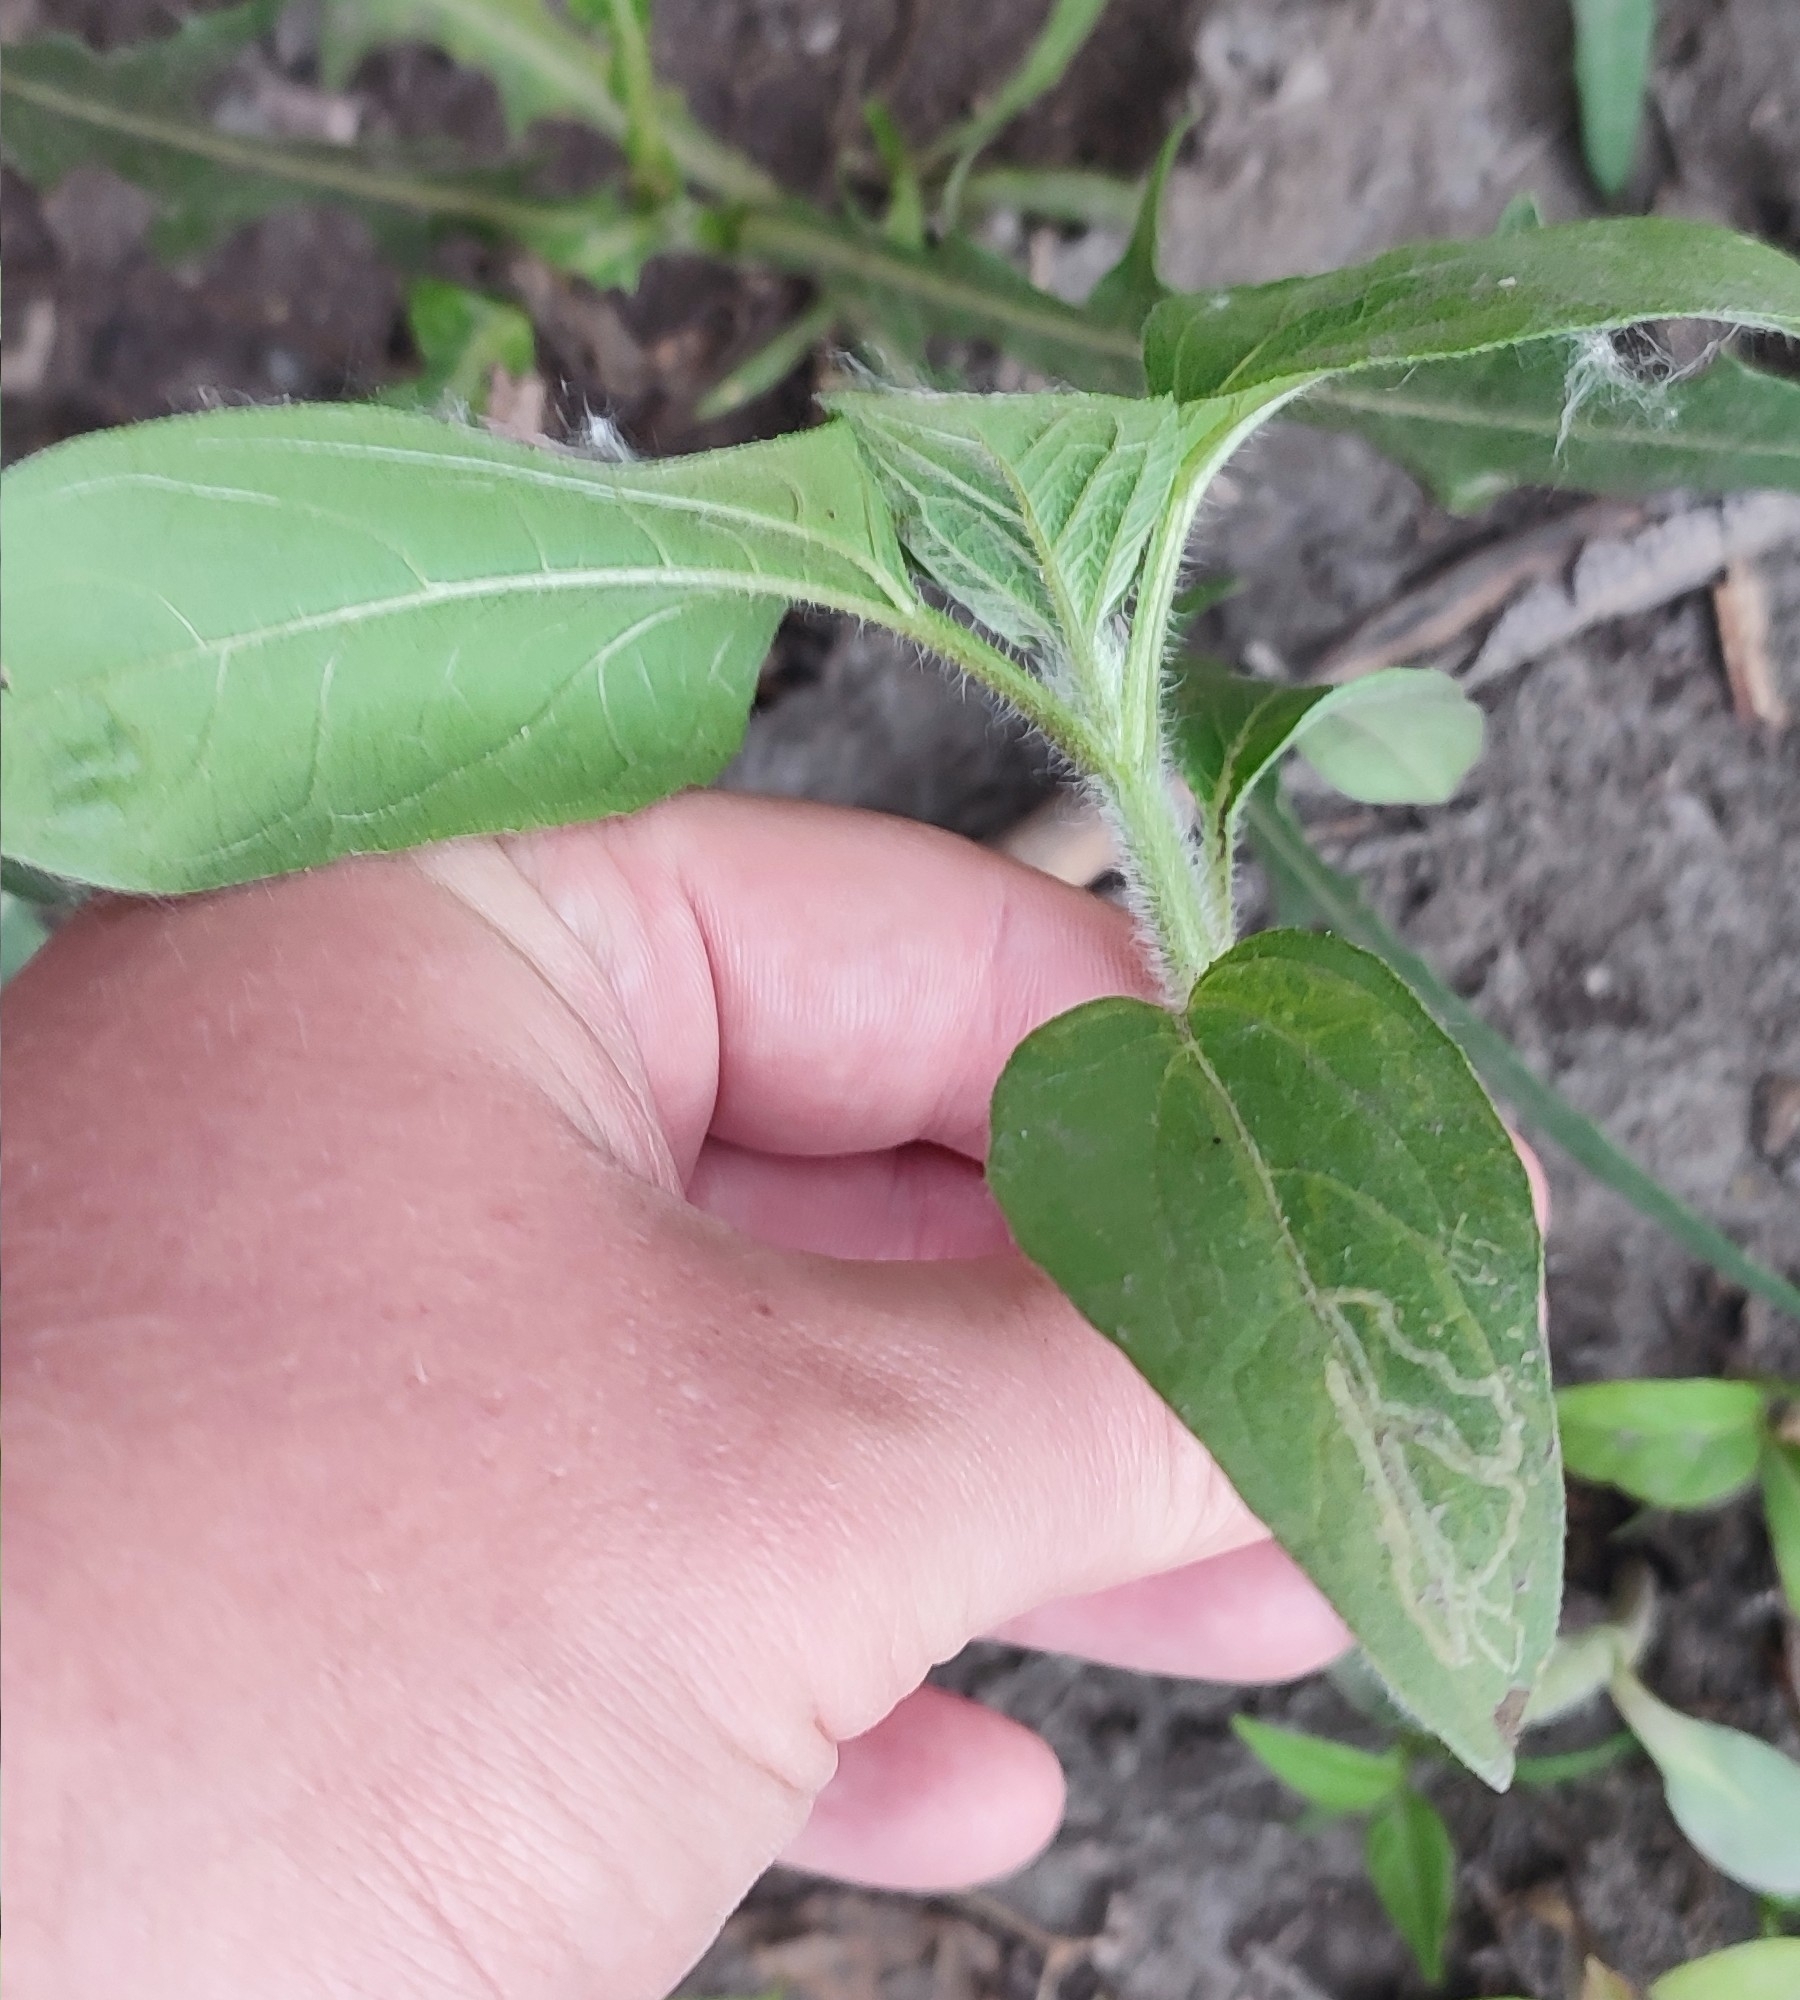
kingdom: Plantae
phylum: Tracheophyta
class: Magnoliopsida
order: Asterales
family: Asteraceae
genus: Helianthus
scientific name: Helianthus tuberosus
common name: Jerusalem artichoke
